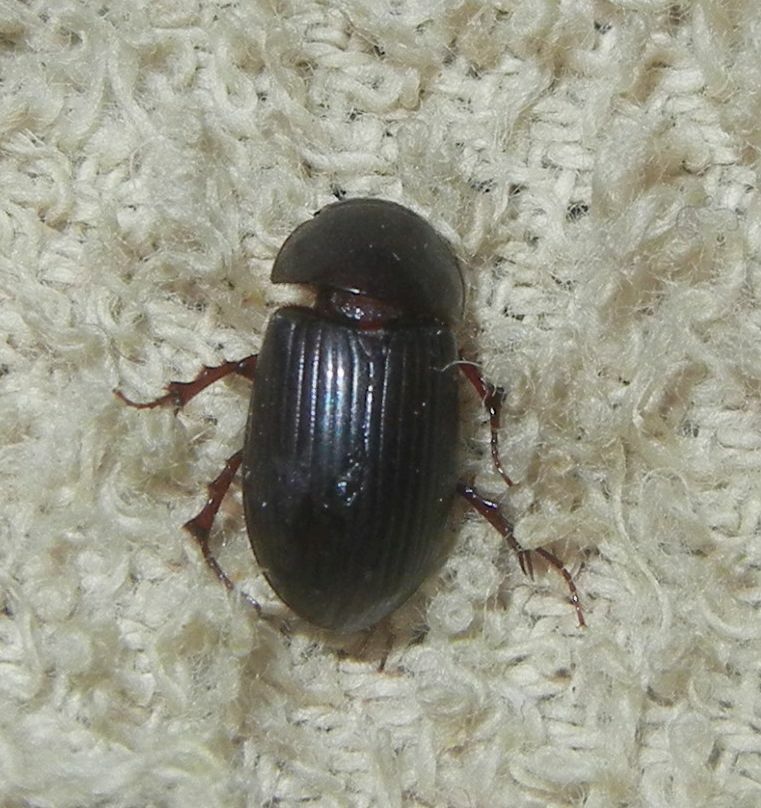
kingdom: Animalia
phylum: Arthropoda
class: Insecta
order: Coleoptera
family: Scarabaeidae
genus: Acrossus
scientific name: Acrossus rufipes
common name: Night-flying dung beetle
